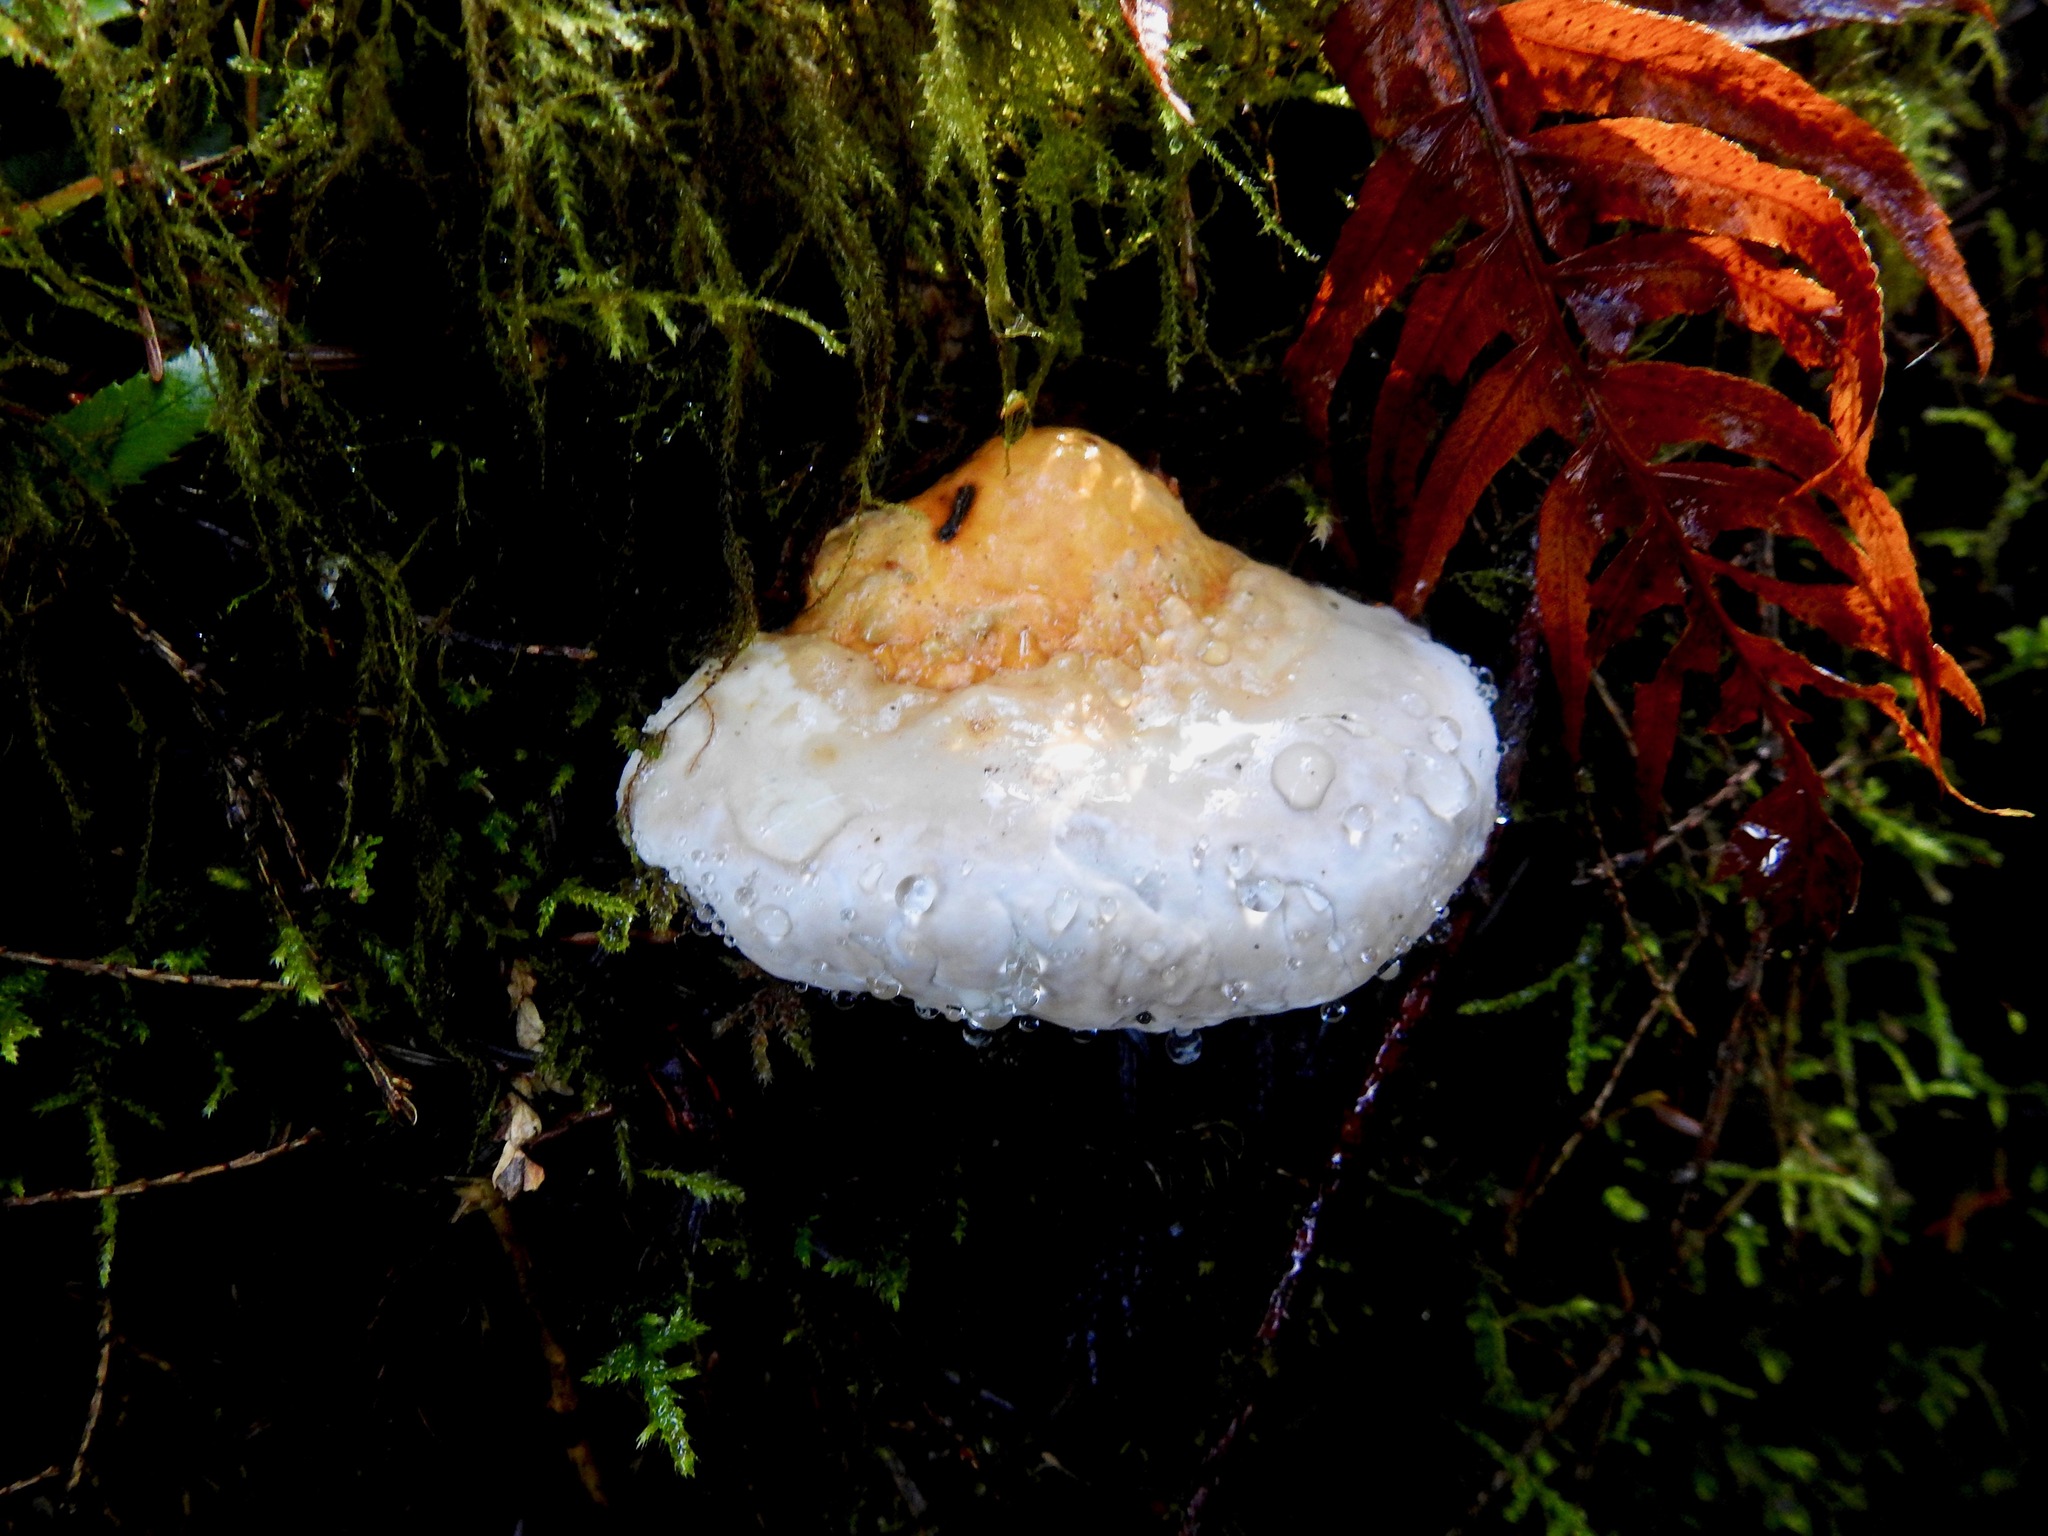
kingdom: Fungi
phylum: Basidiomycota
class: Agaricomycetes
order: Polyporales
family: Fomitopsidaceae
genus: Fomitopsis
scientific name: Fomitopsis mounceae
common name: Northern red belt
